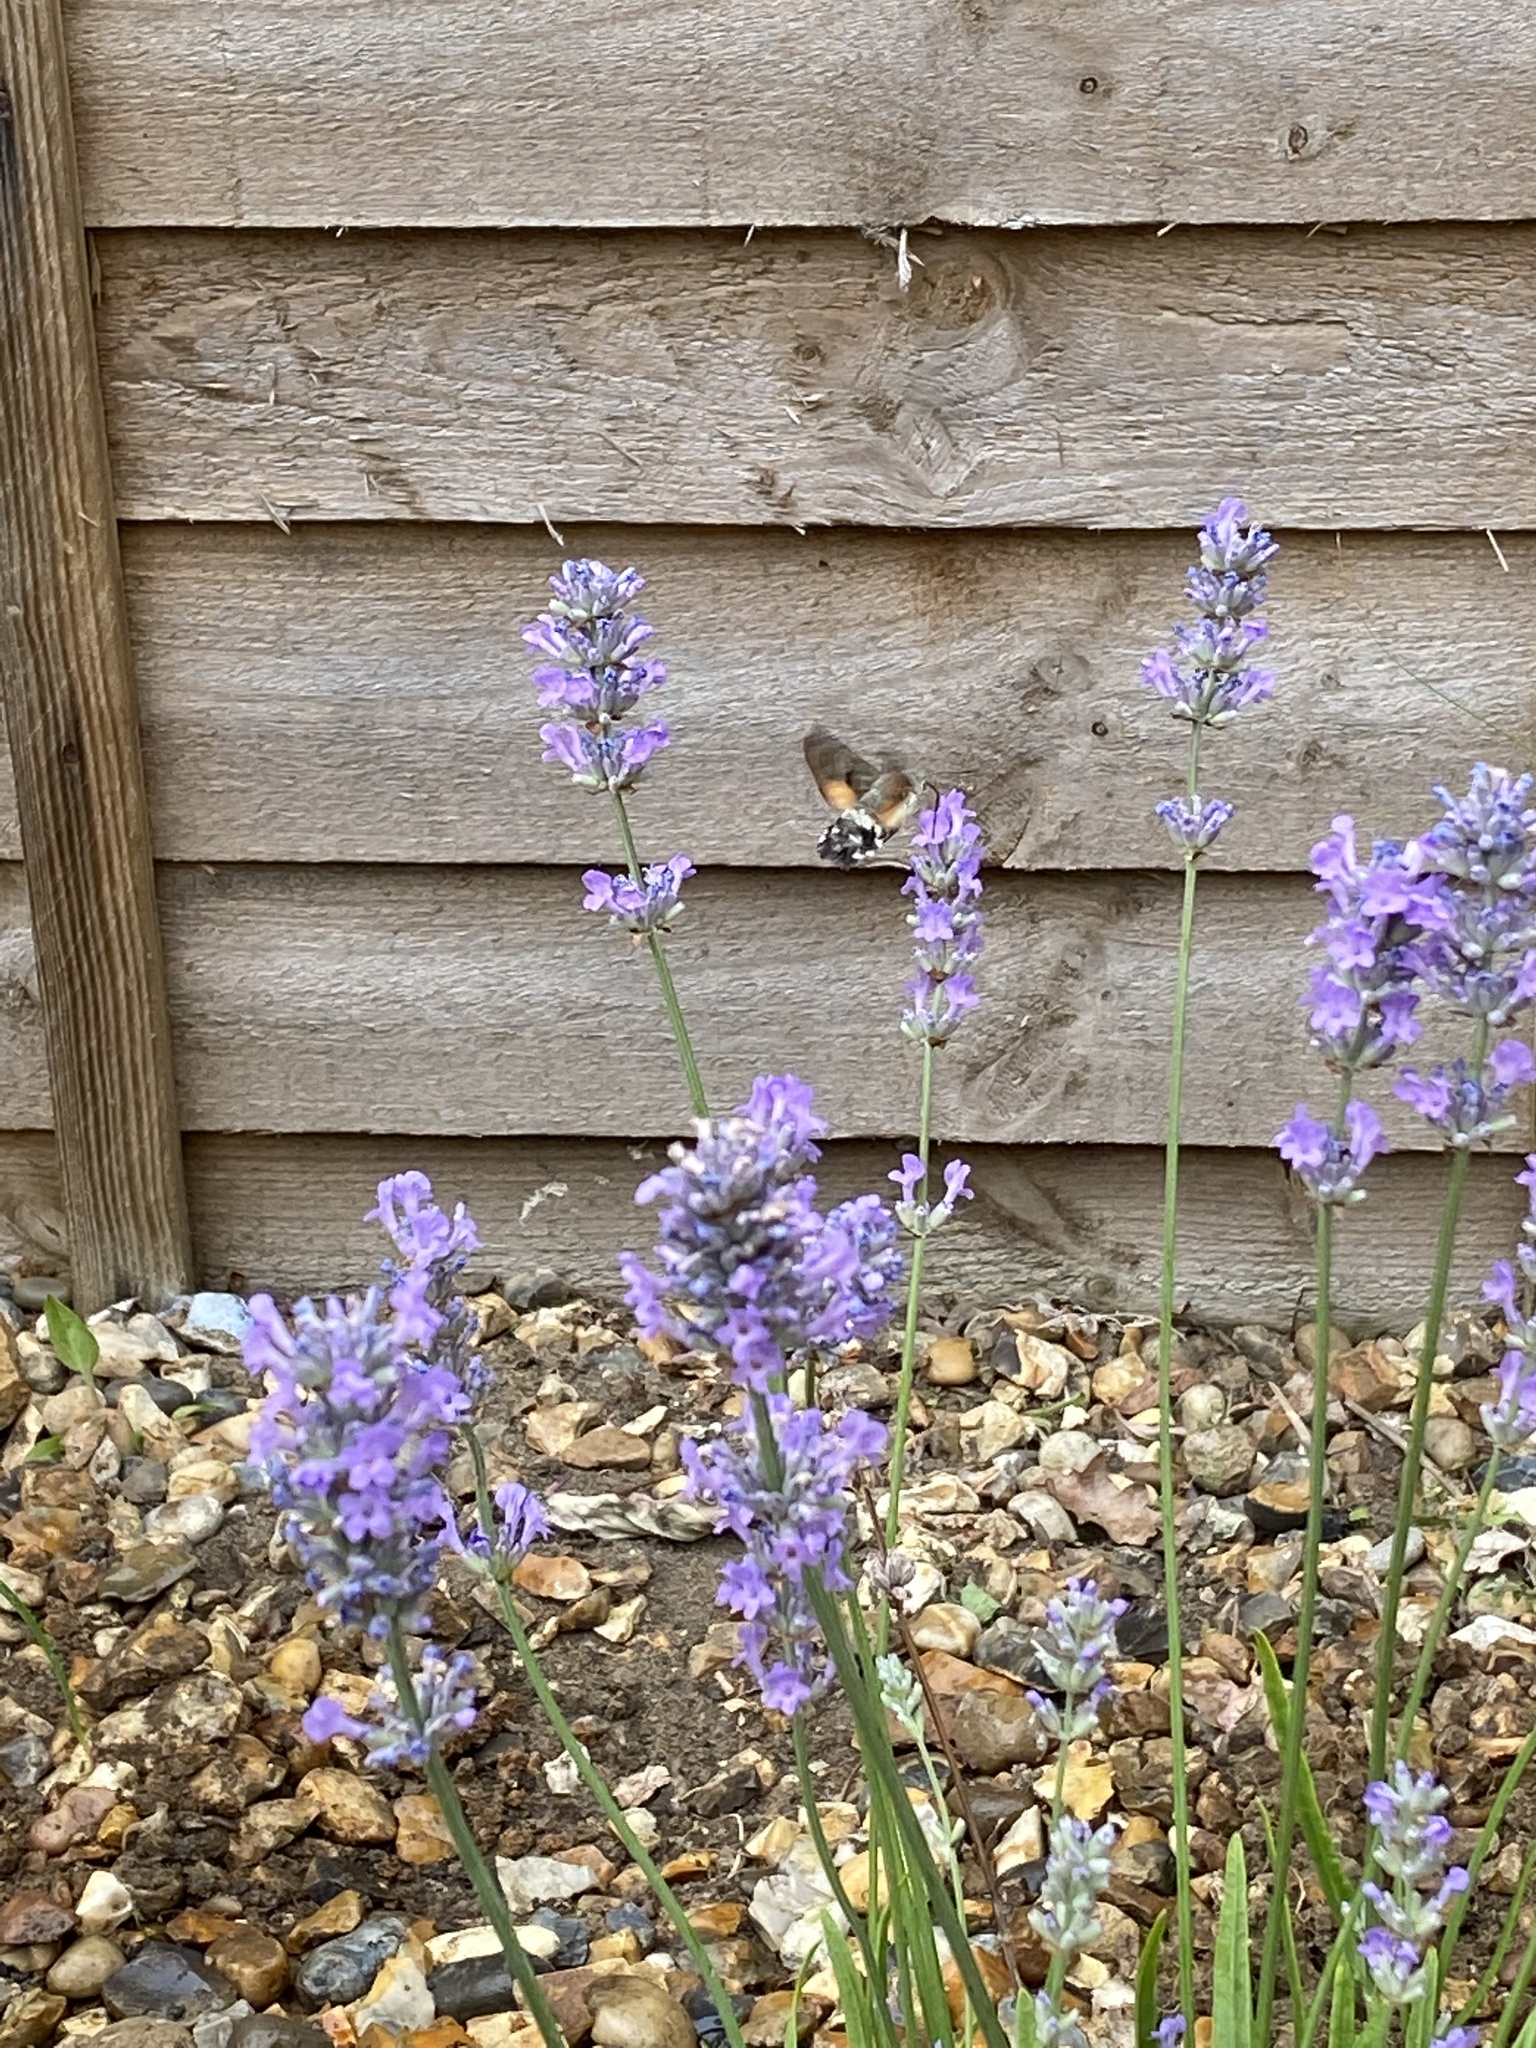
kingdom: Animalia
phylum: Arthropoda
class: Insecta
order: Lepidoptera
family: Sphingidae
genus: Macroglossum
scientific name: Macroglossum stellatarum
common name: Humming-bird hawk-moth
